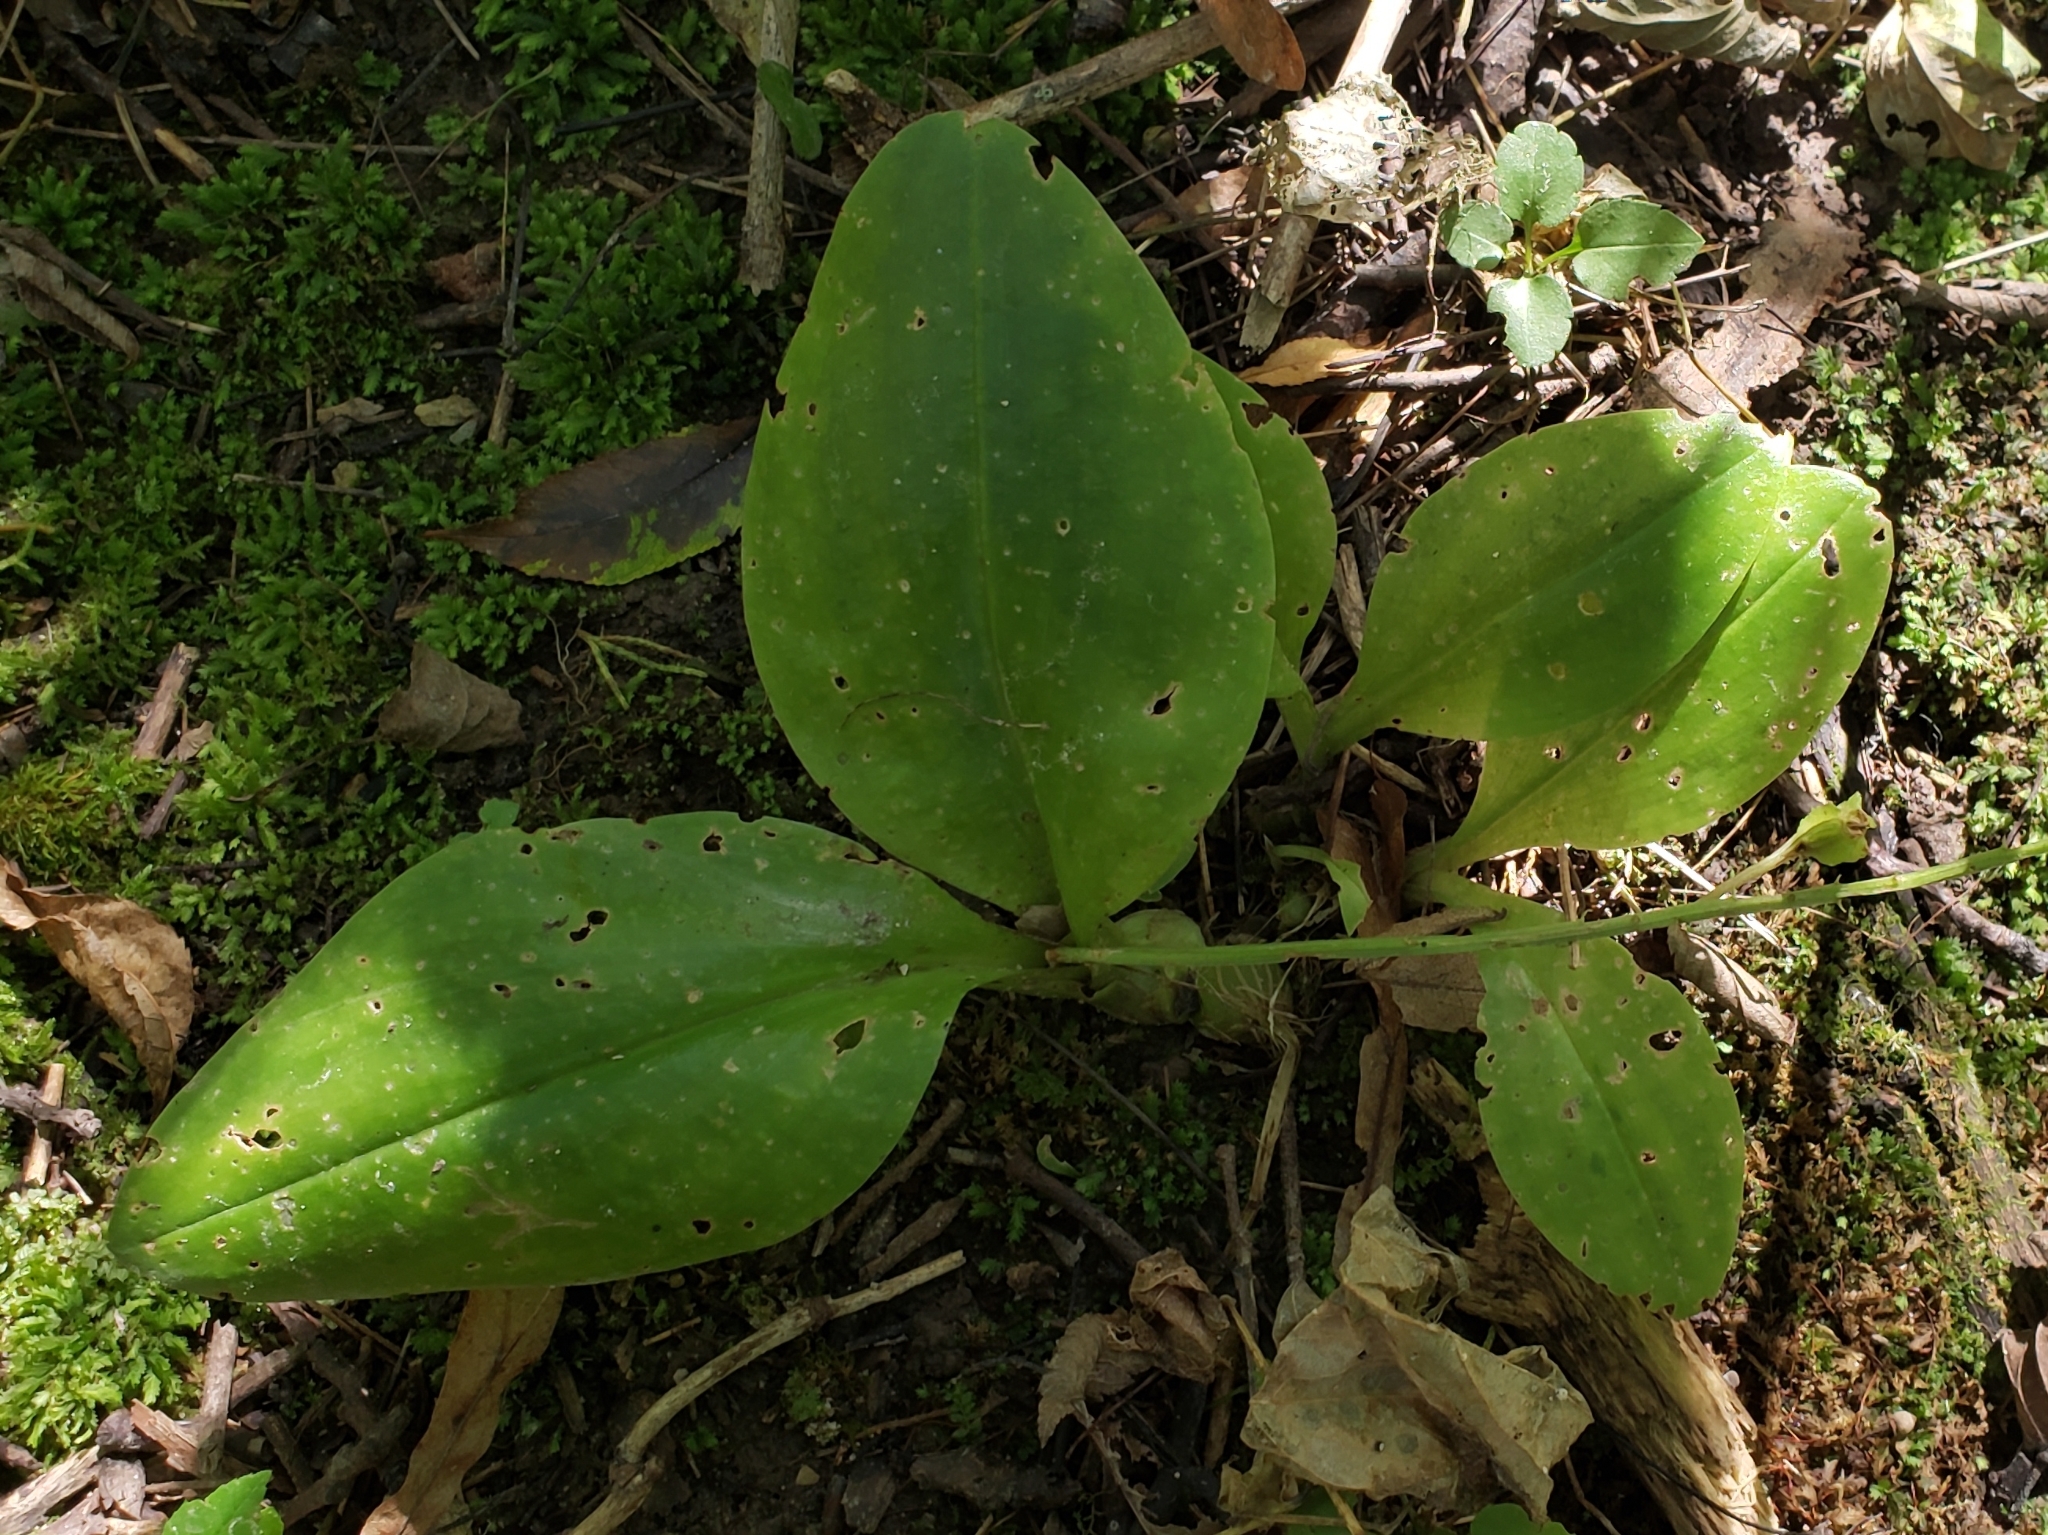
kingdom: Plantae
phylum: Tracheophyta
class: Liliopsida
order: Asparagales
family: Orchidaceae
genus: Liparis
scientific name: Liparis liliifolia
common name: Brown wide-lip orchid
